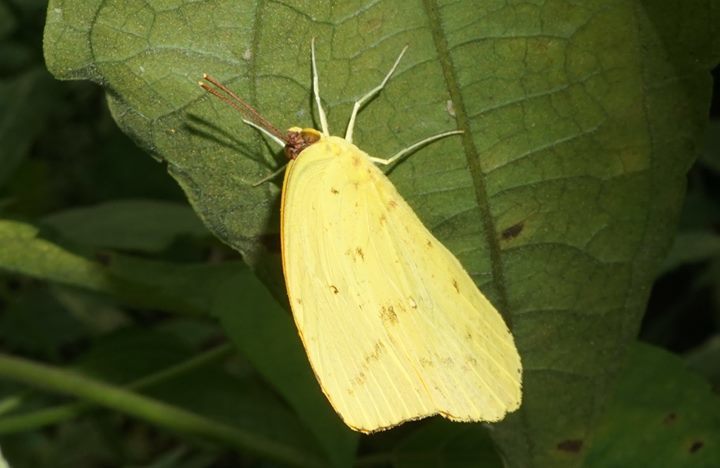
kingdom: Animalia
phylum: Arthropoda
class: Insecta
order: Lepidoptera
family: Pieridae
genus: Phoebis
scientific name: Phoebis agarithe
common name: Large orange sulphur
